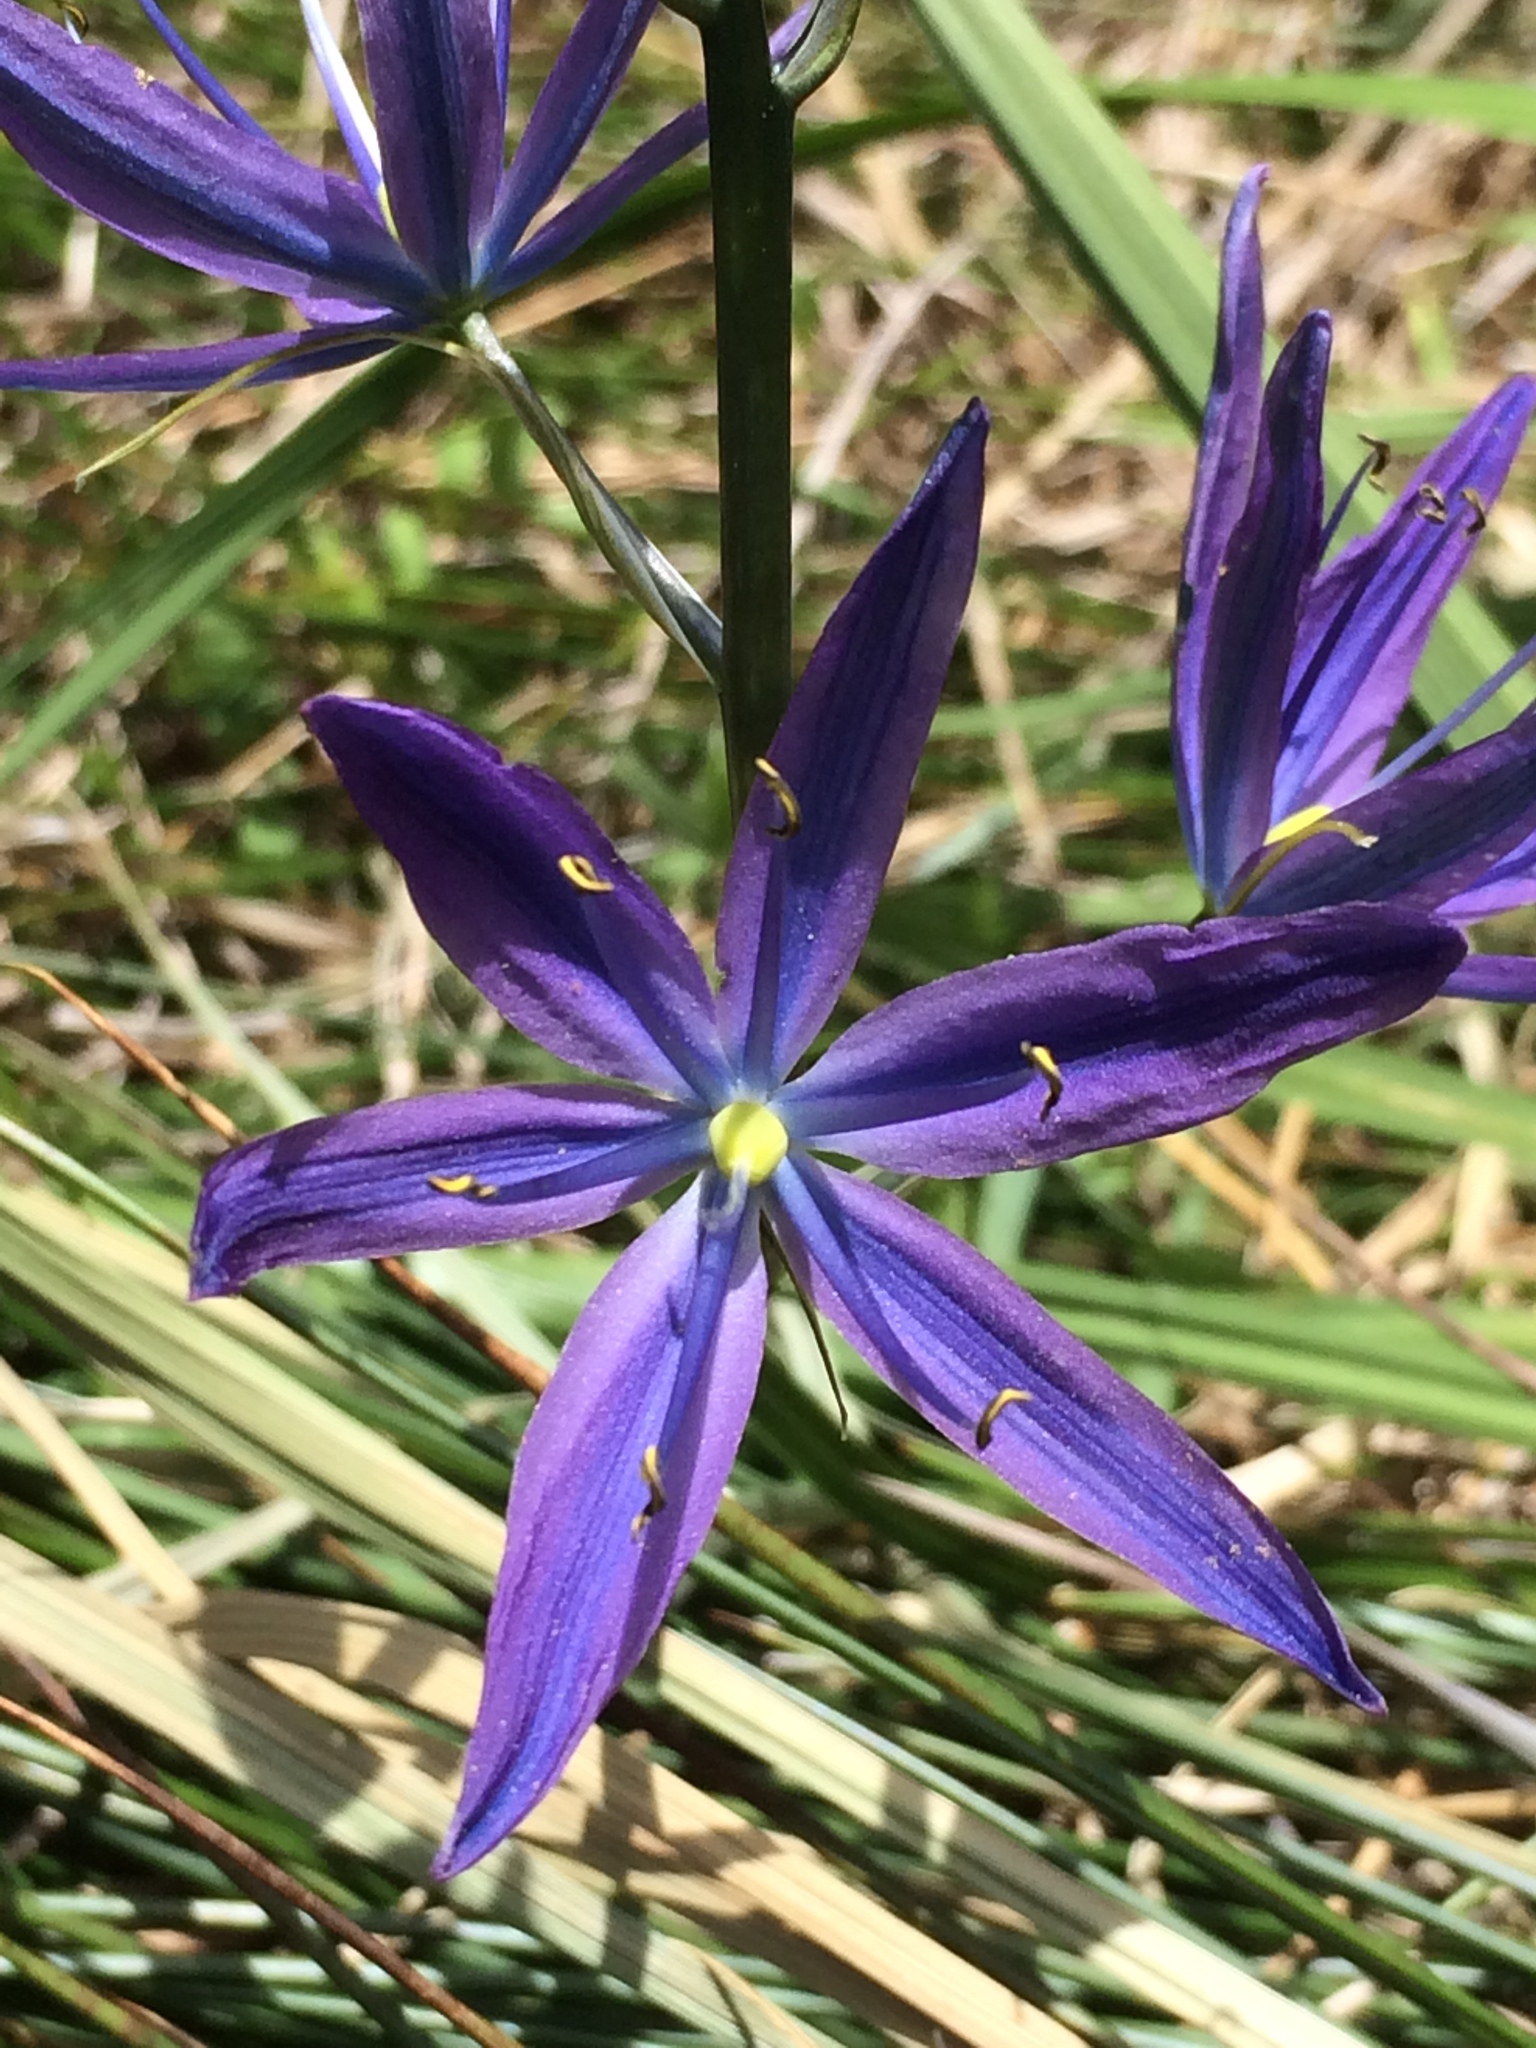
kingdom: Plantae
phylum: Tracheophyta
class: Liliopsida
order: Asparagales
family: Asparagaceae
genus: Camassia
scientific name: Camassia quamash
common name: Common camas
